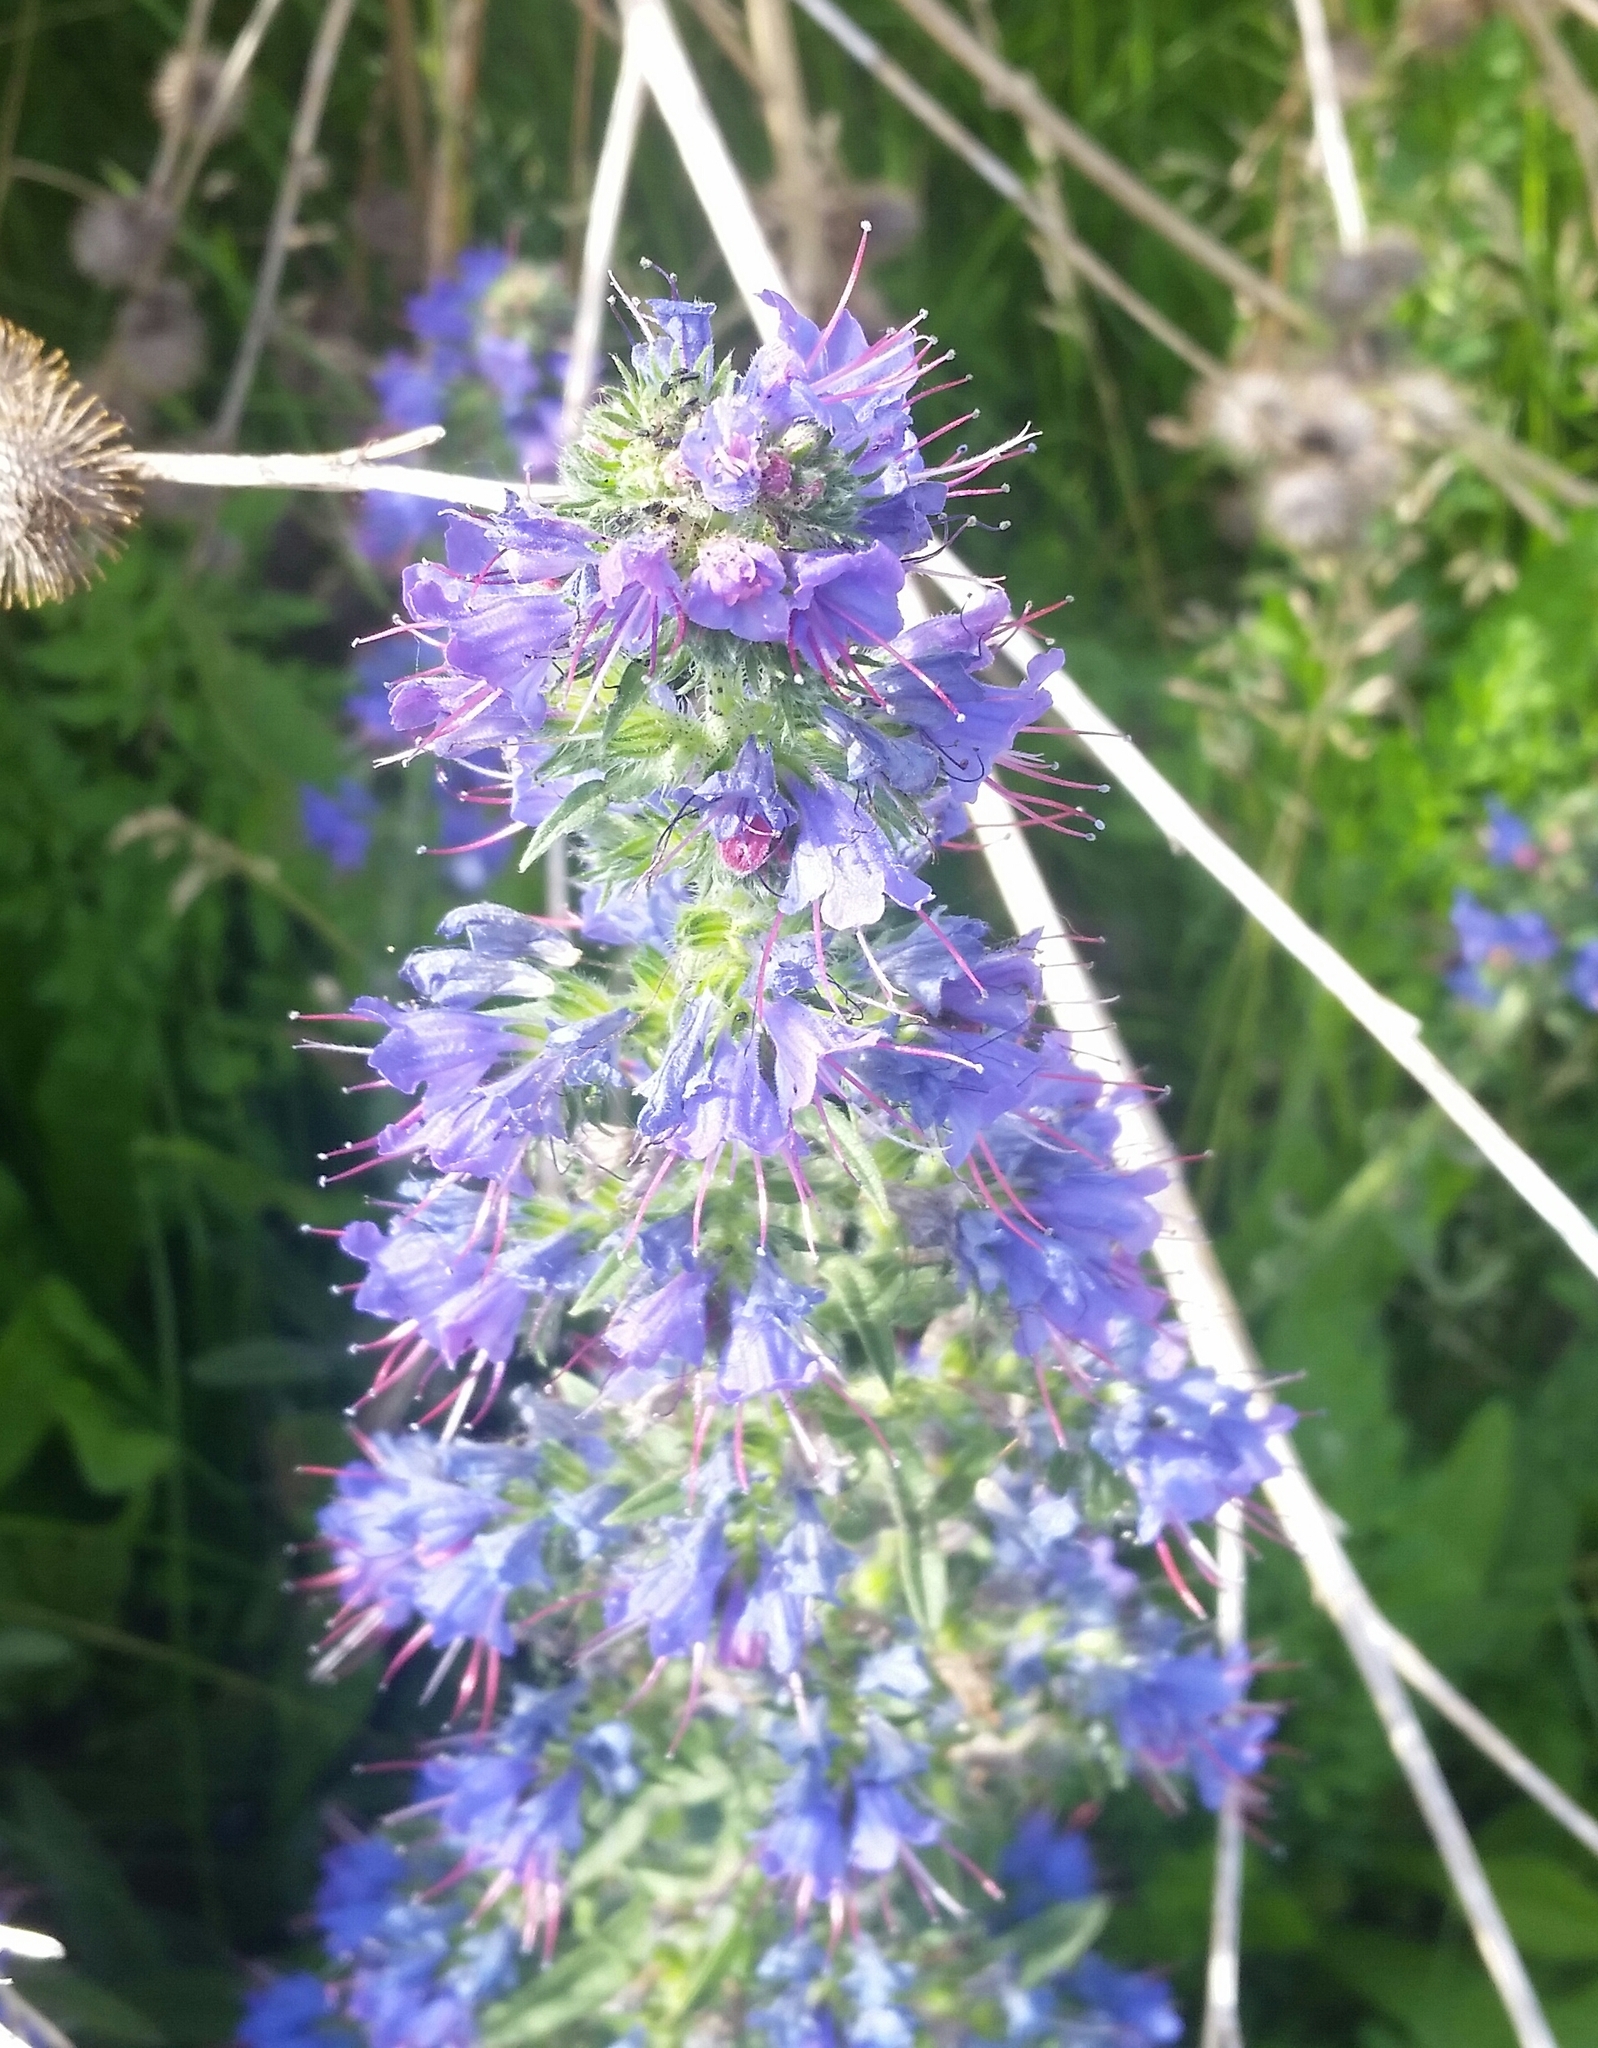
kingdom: Plantae
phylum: Tracheophyta
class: Magnoliopsida
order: Boraginales
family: Boraginaceae
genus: Echium
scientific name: Echium vulgare
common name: Common viper's bugloss
